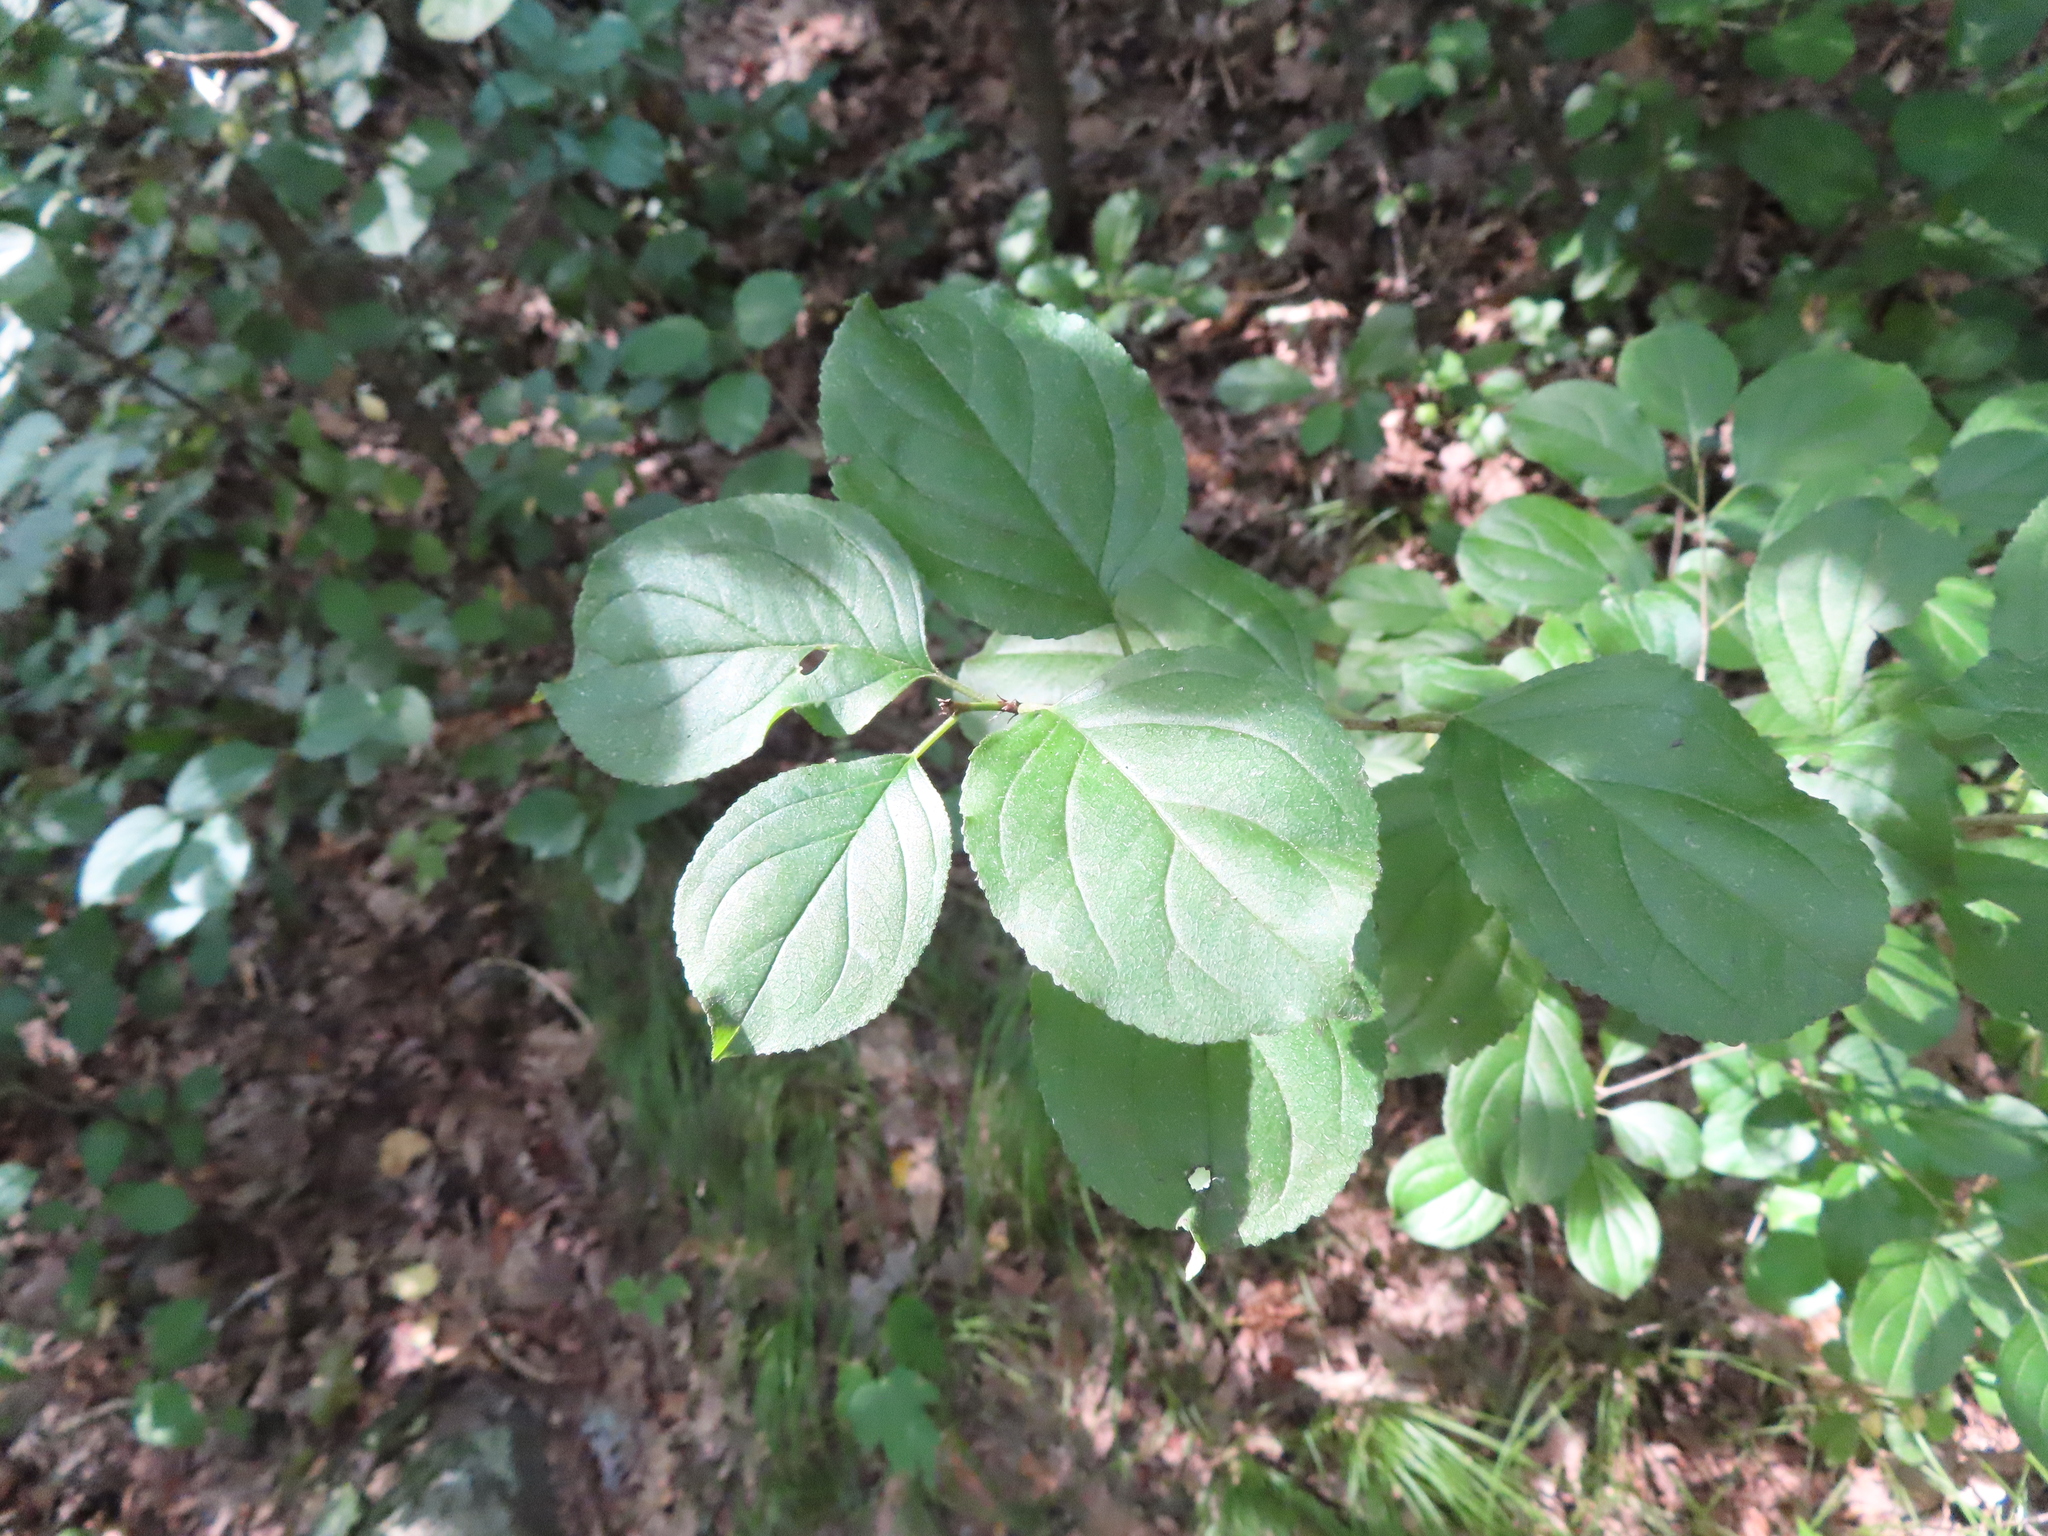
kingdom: Plantae
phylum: Tracheophyta
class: Magnoliopsida
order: Rosales
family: Rhamnaceae
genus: Rhamnus
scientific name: Rhamnus cathartica
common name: Common buckthorn
